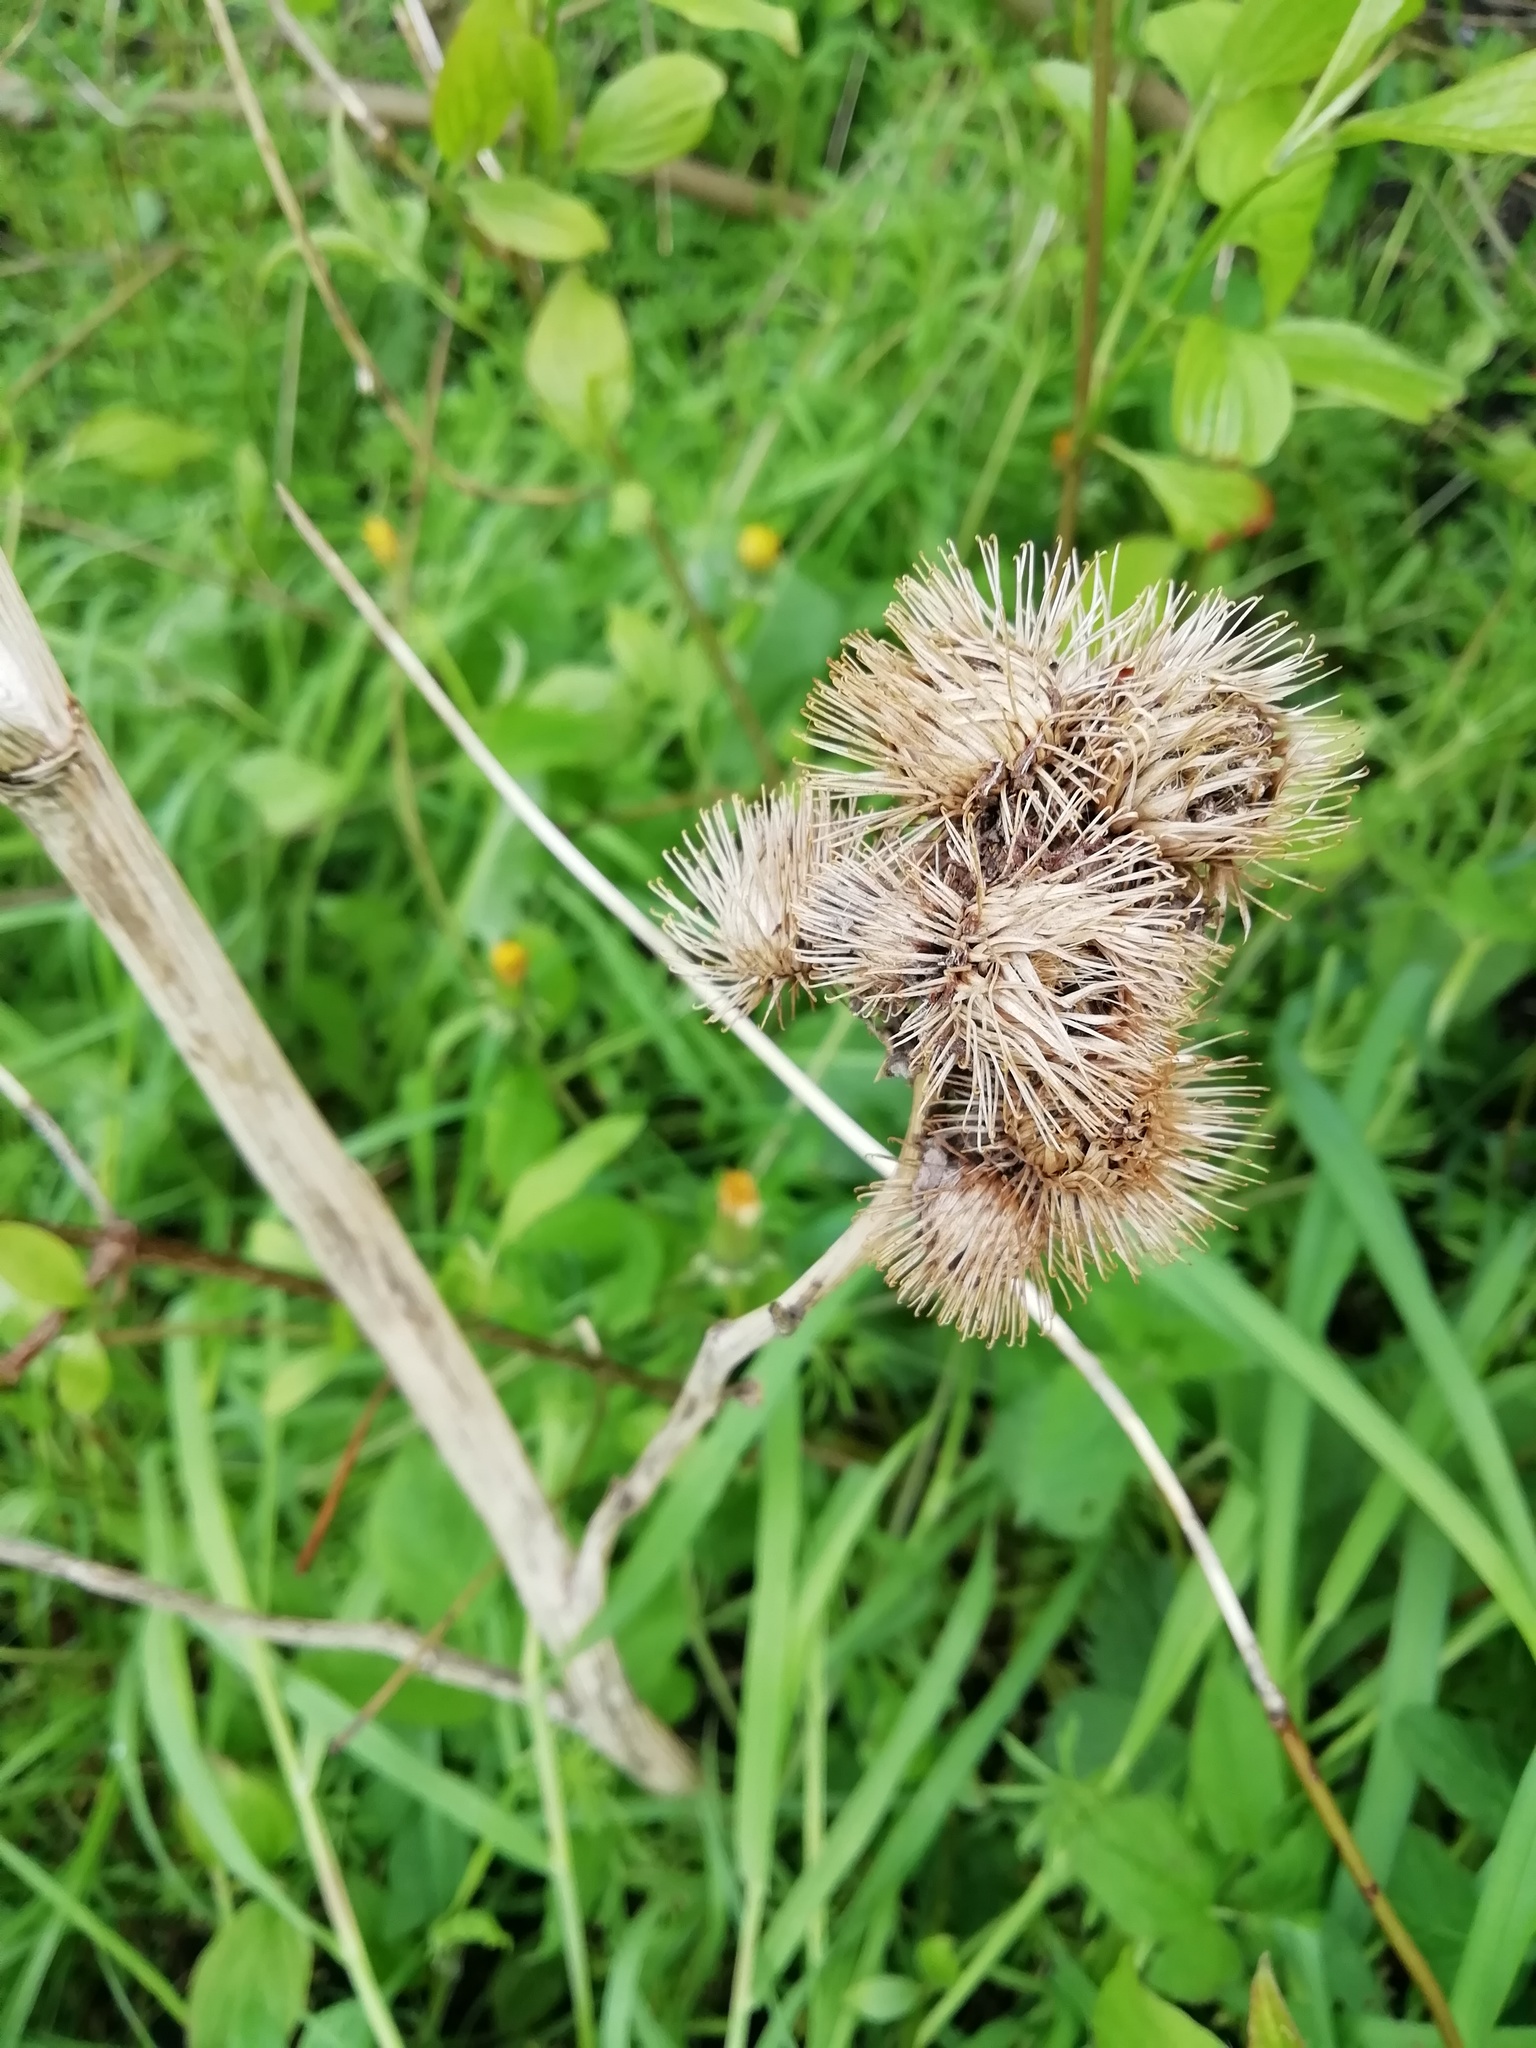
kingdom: Plantae
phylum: Tracheophyta
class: Magnoliopsida
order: Asterales
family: Asteraceae
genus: Arctium
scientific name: Arctium minus
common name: Lesser burdock
